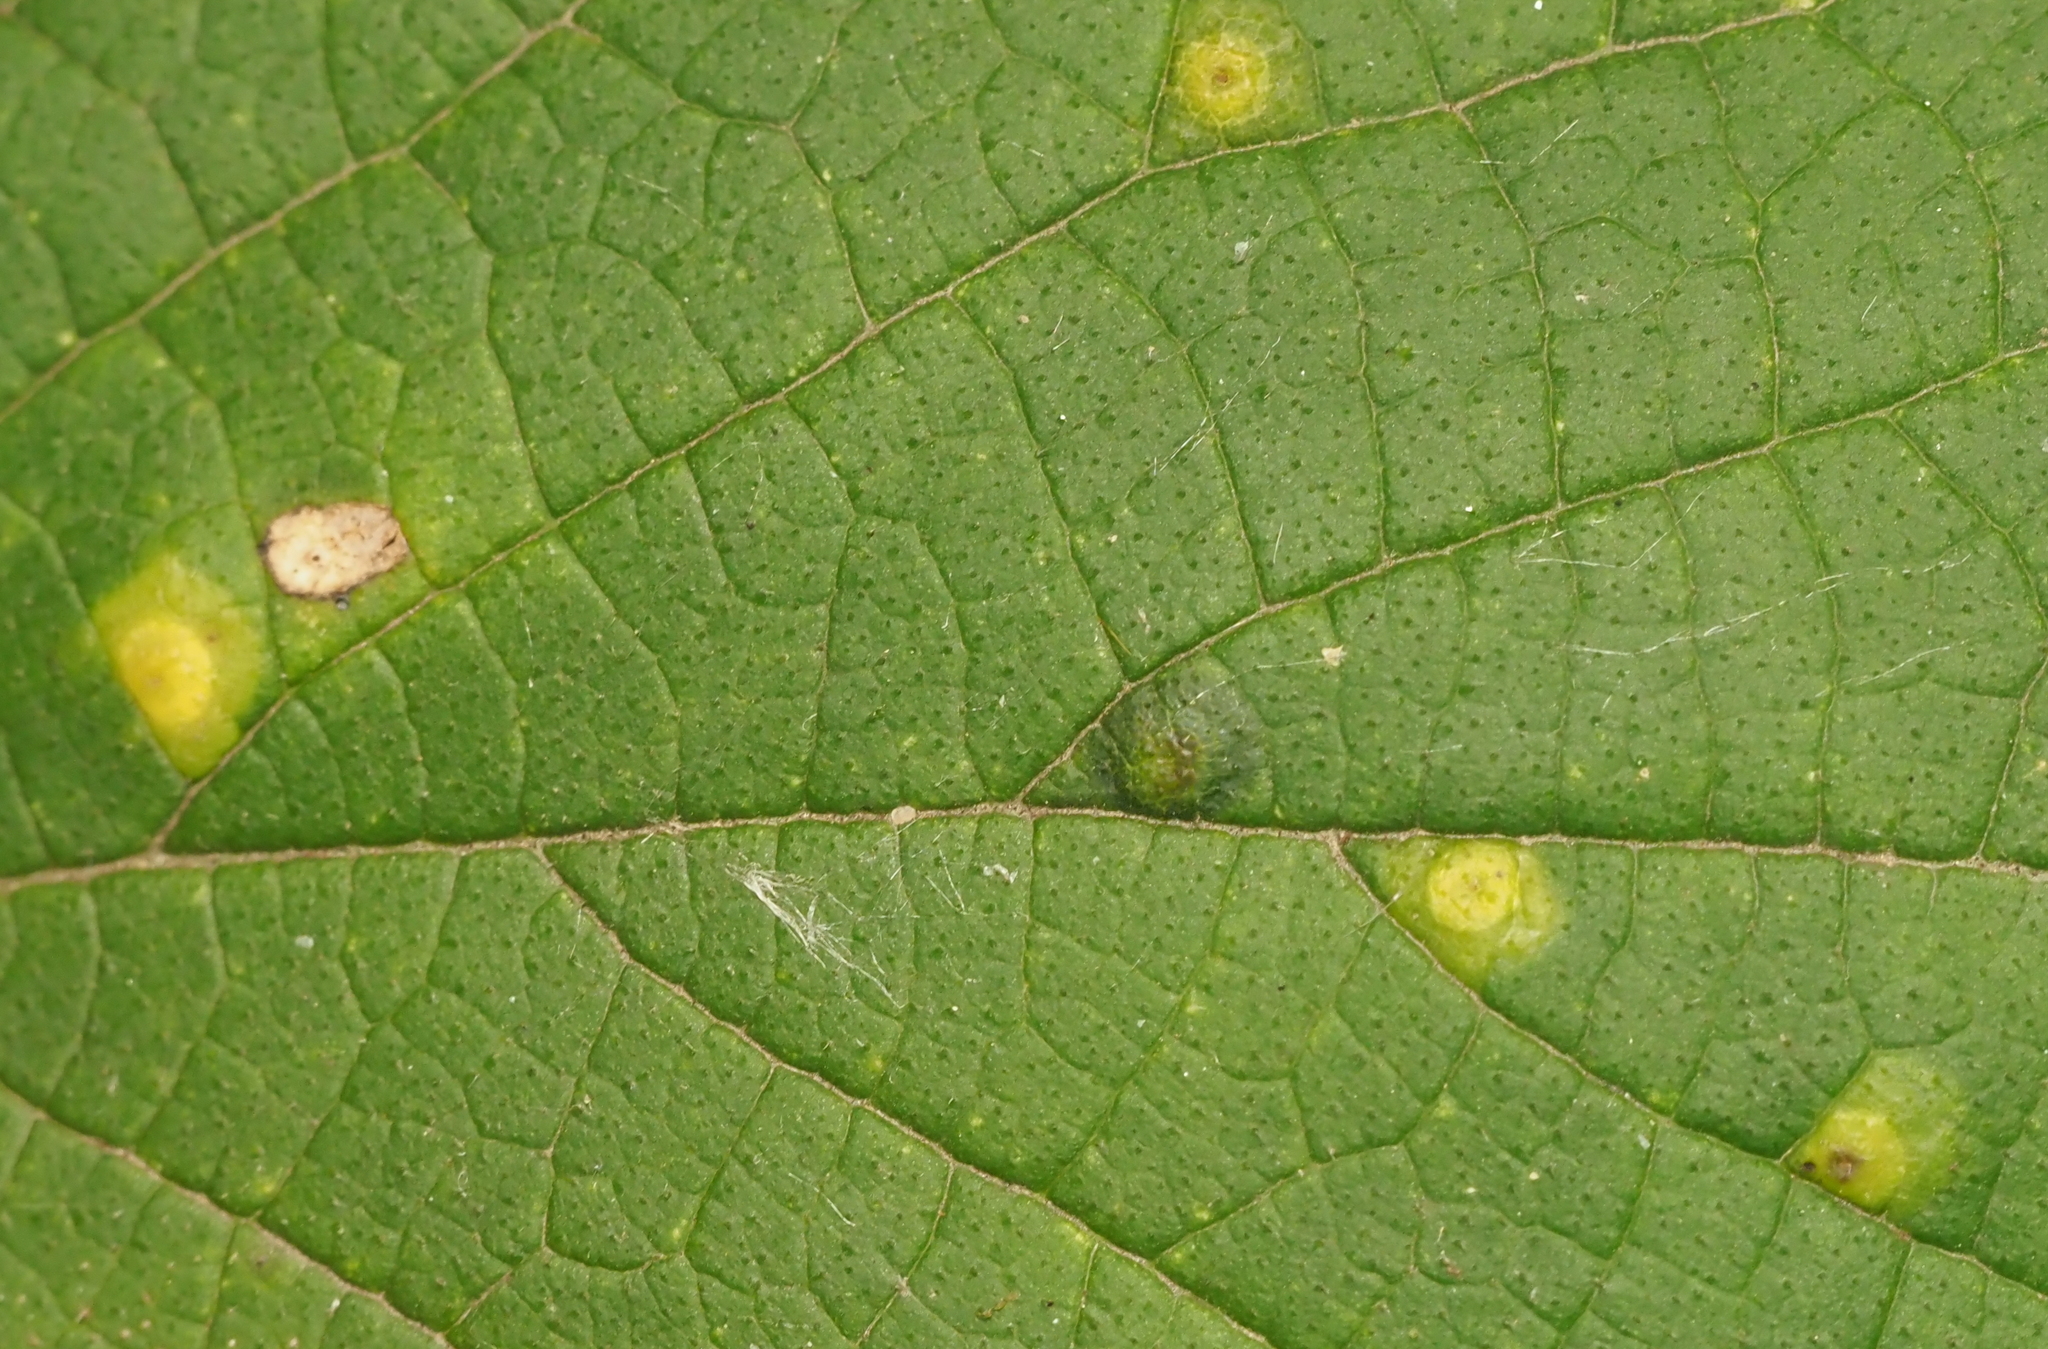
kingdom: Animalia
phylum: Arthropoda
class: Insecta
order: Hemiptera
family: Aphalaridae
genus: Pachypsylla
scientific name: Pachypsylla celtidisvesicula
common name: Hackberry blister gall psyllid
